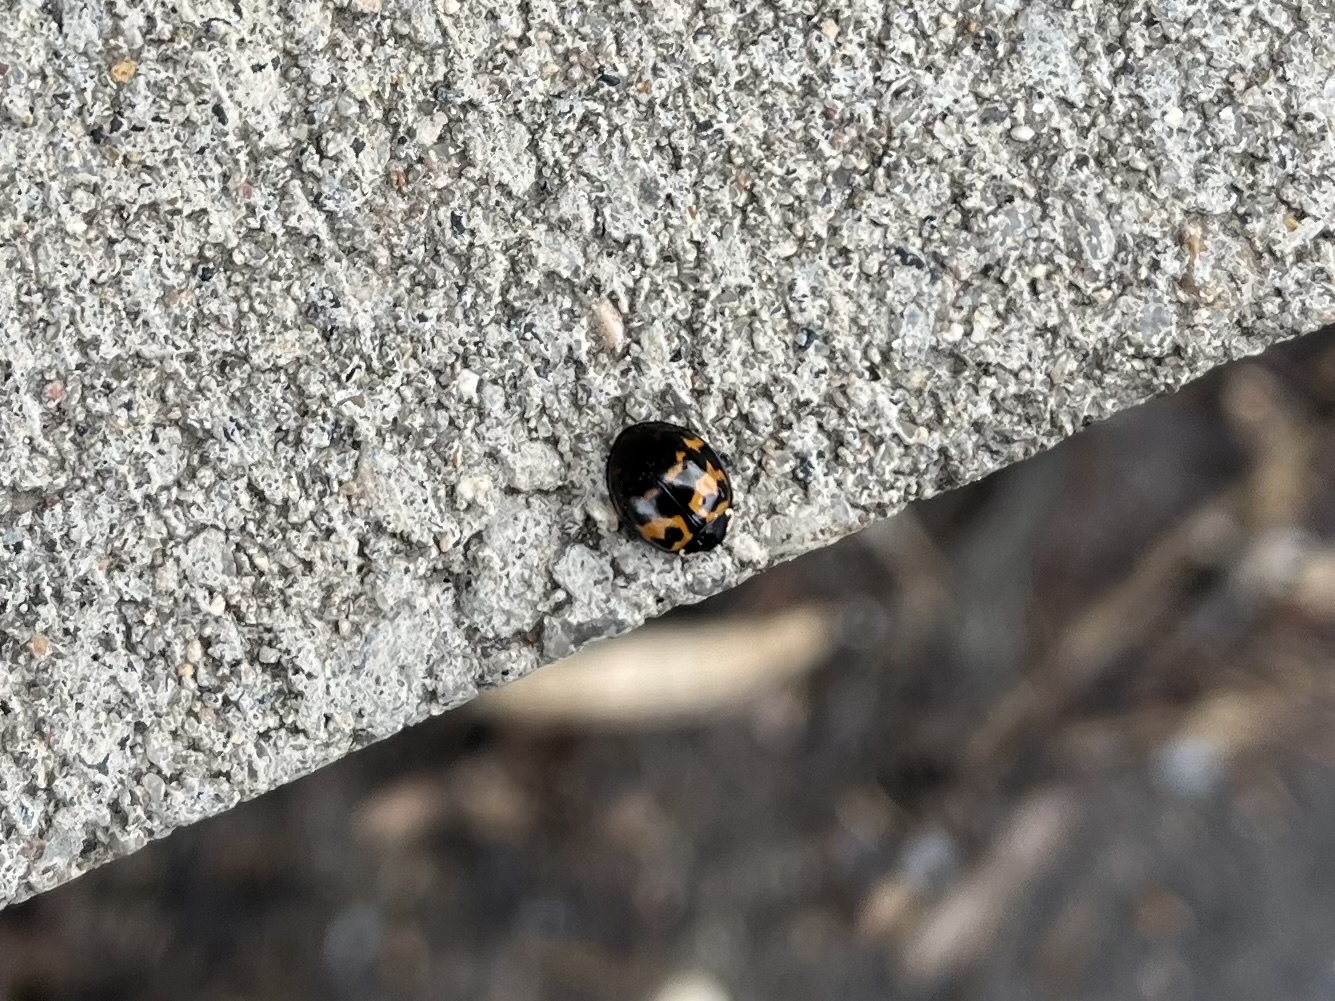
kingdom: Animalia
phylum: Arthropoda
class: Insecta
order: Coleoptera
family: Coccinellidae
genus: Harmonia
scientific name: Harmonia axyridis
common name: Harlequin ladybird
